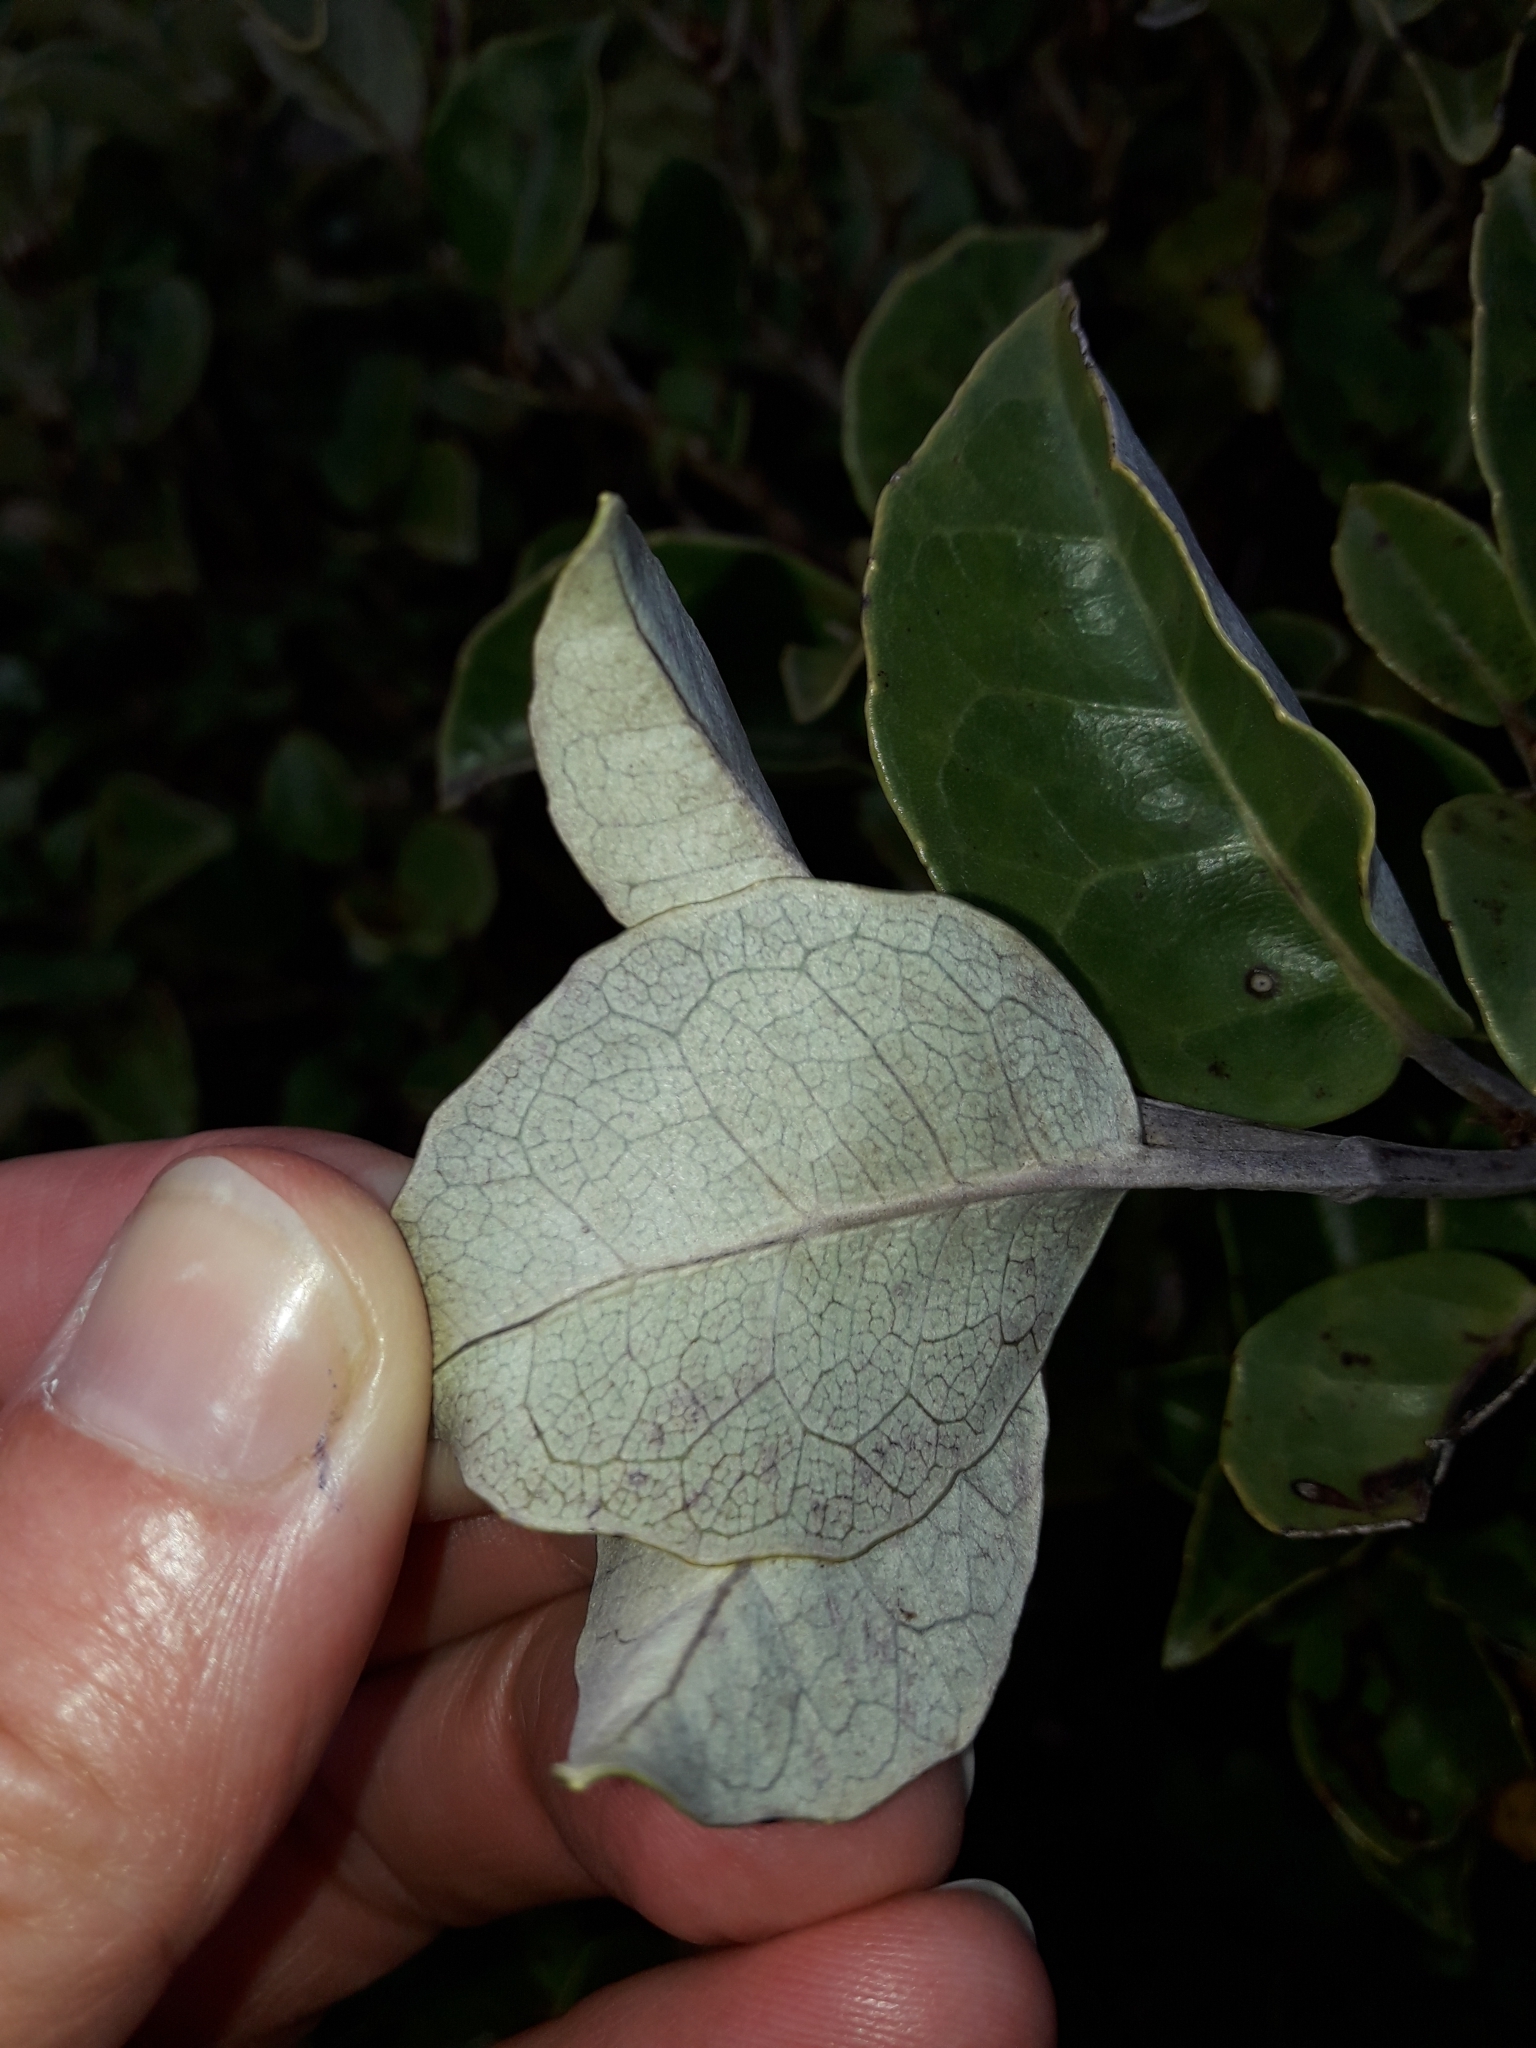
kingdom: Plantae
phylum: Tracheophyta
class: Magnoliopsida
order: Asterales
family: Asteraceae
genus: Olearia
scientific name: Olearia arborescens
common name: Glossy tree daisy
